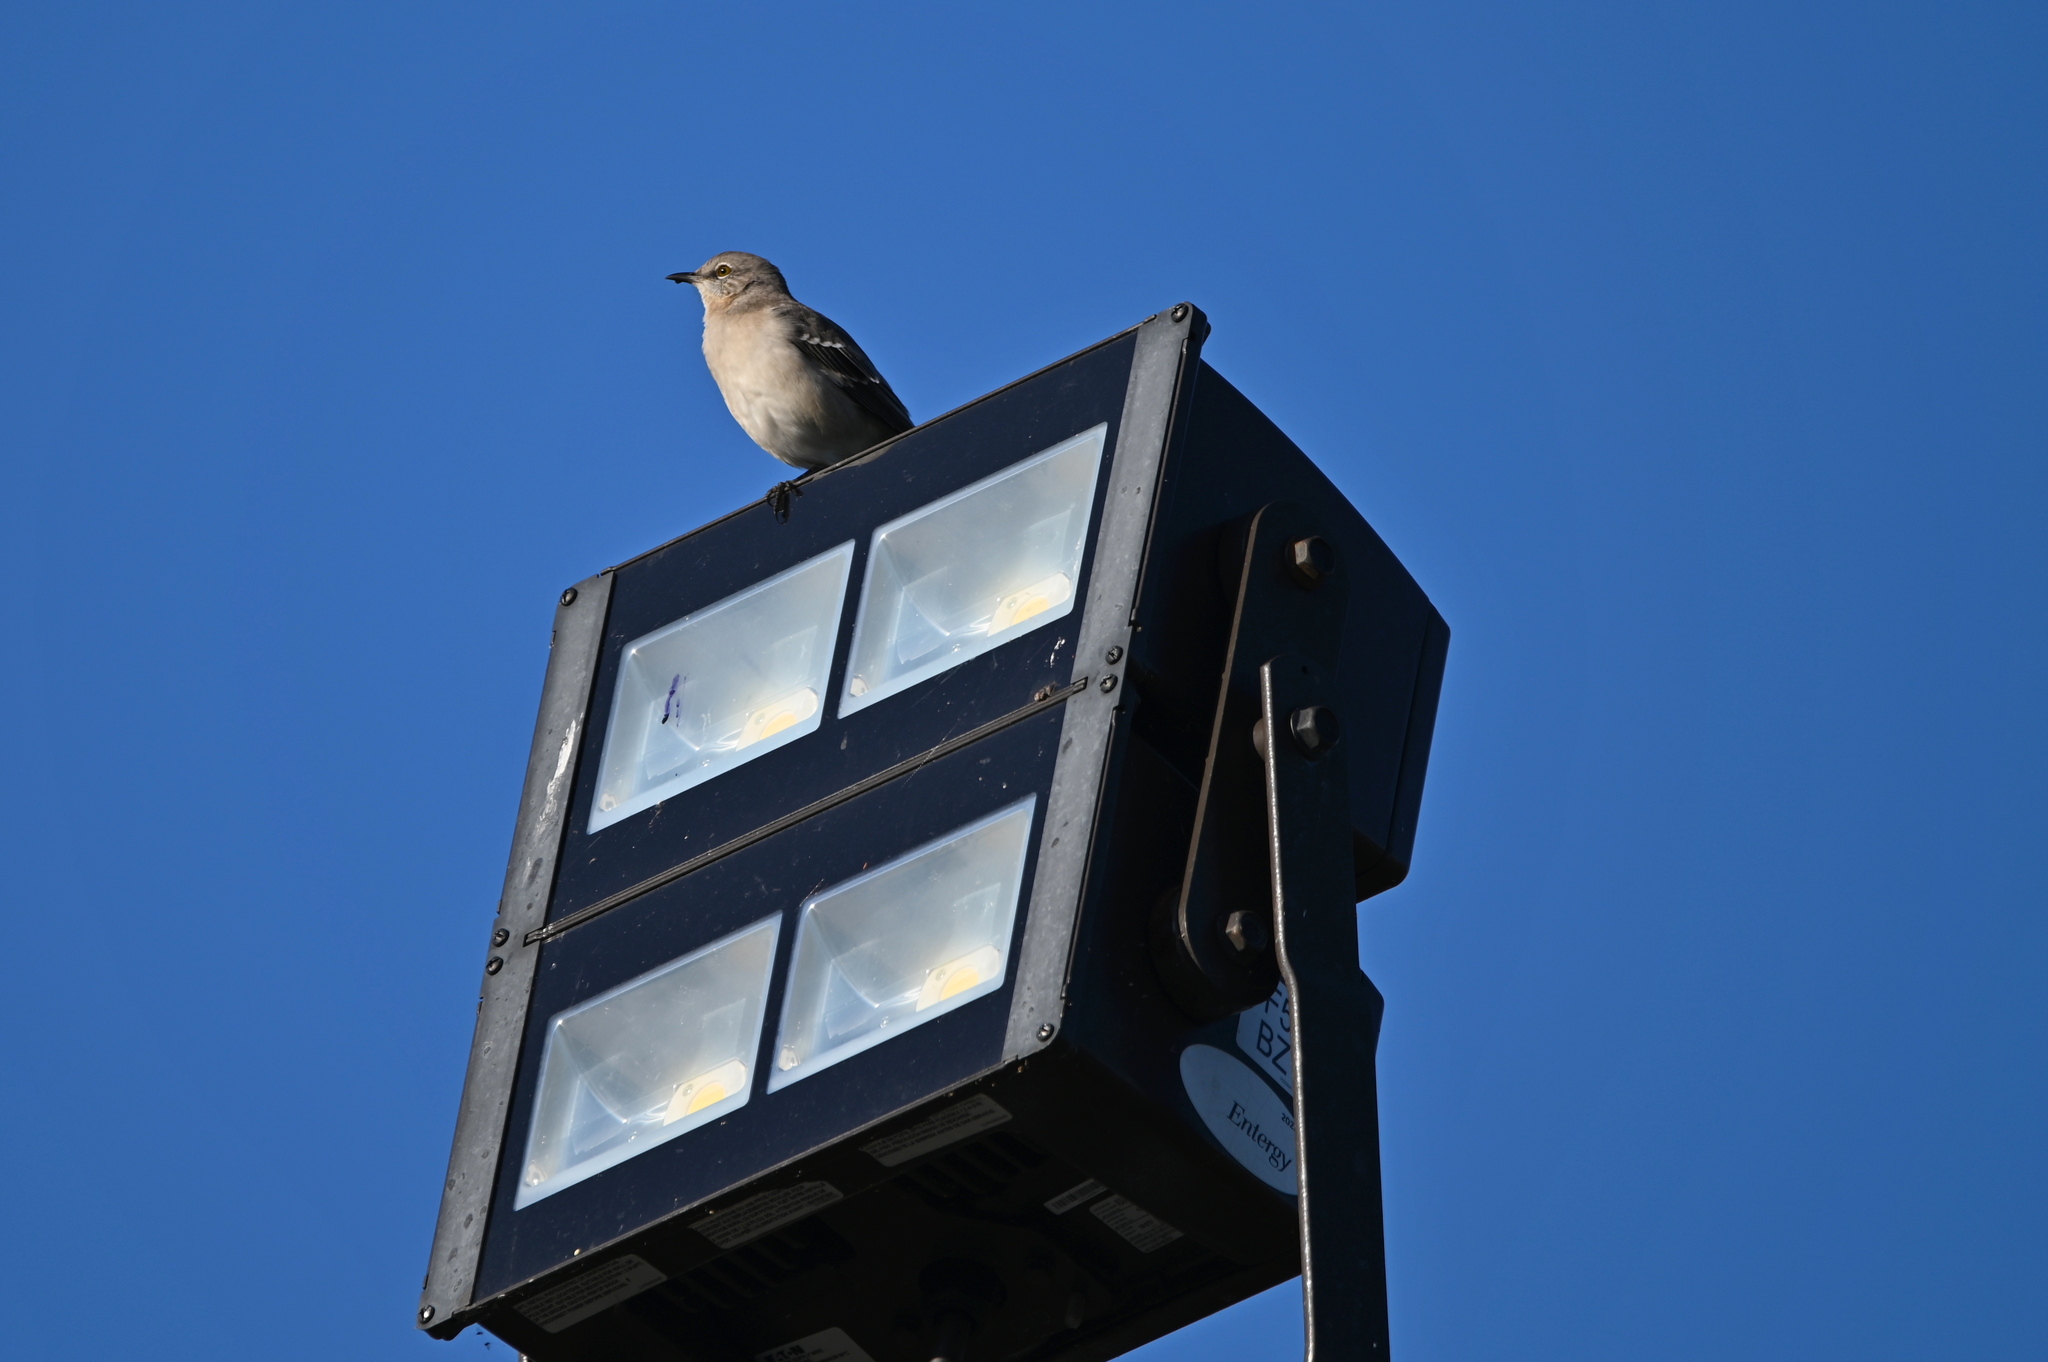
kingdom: Animalia
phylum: Chordata
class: Aves
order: Passeriformes
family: Mimidae
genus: Mimus
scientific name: Mimus polyglottos
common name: Northern mockingbird
